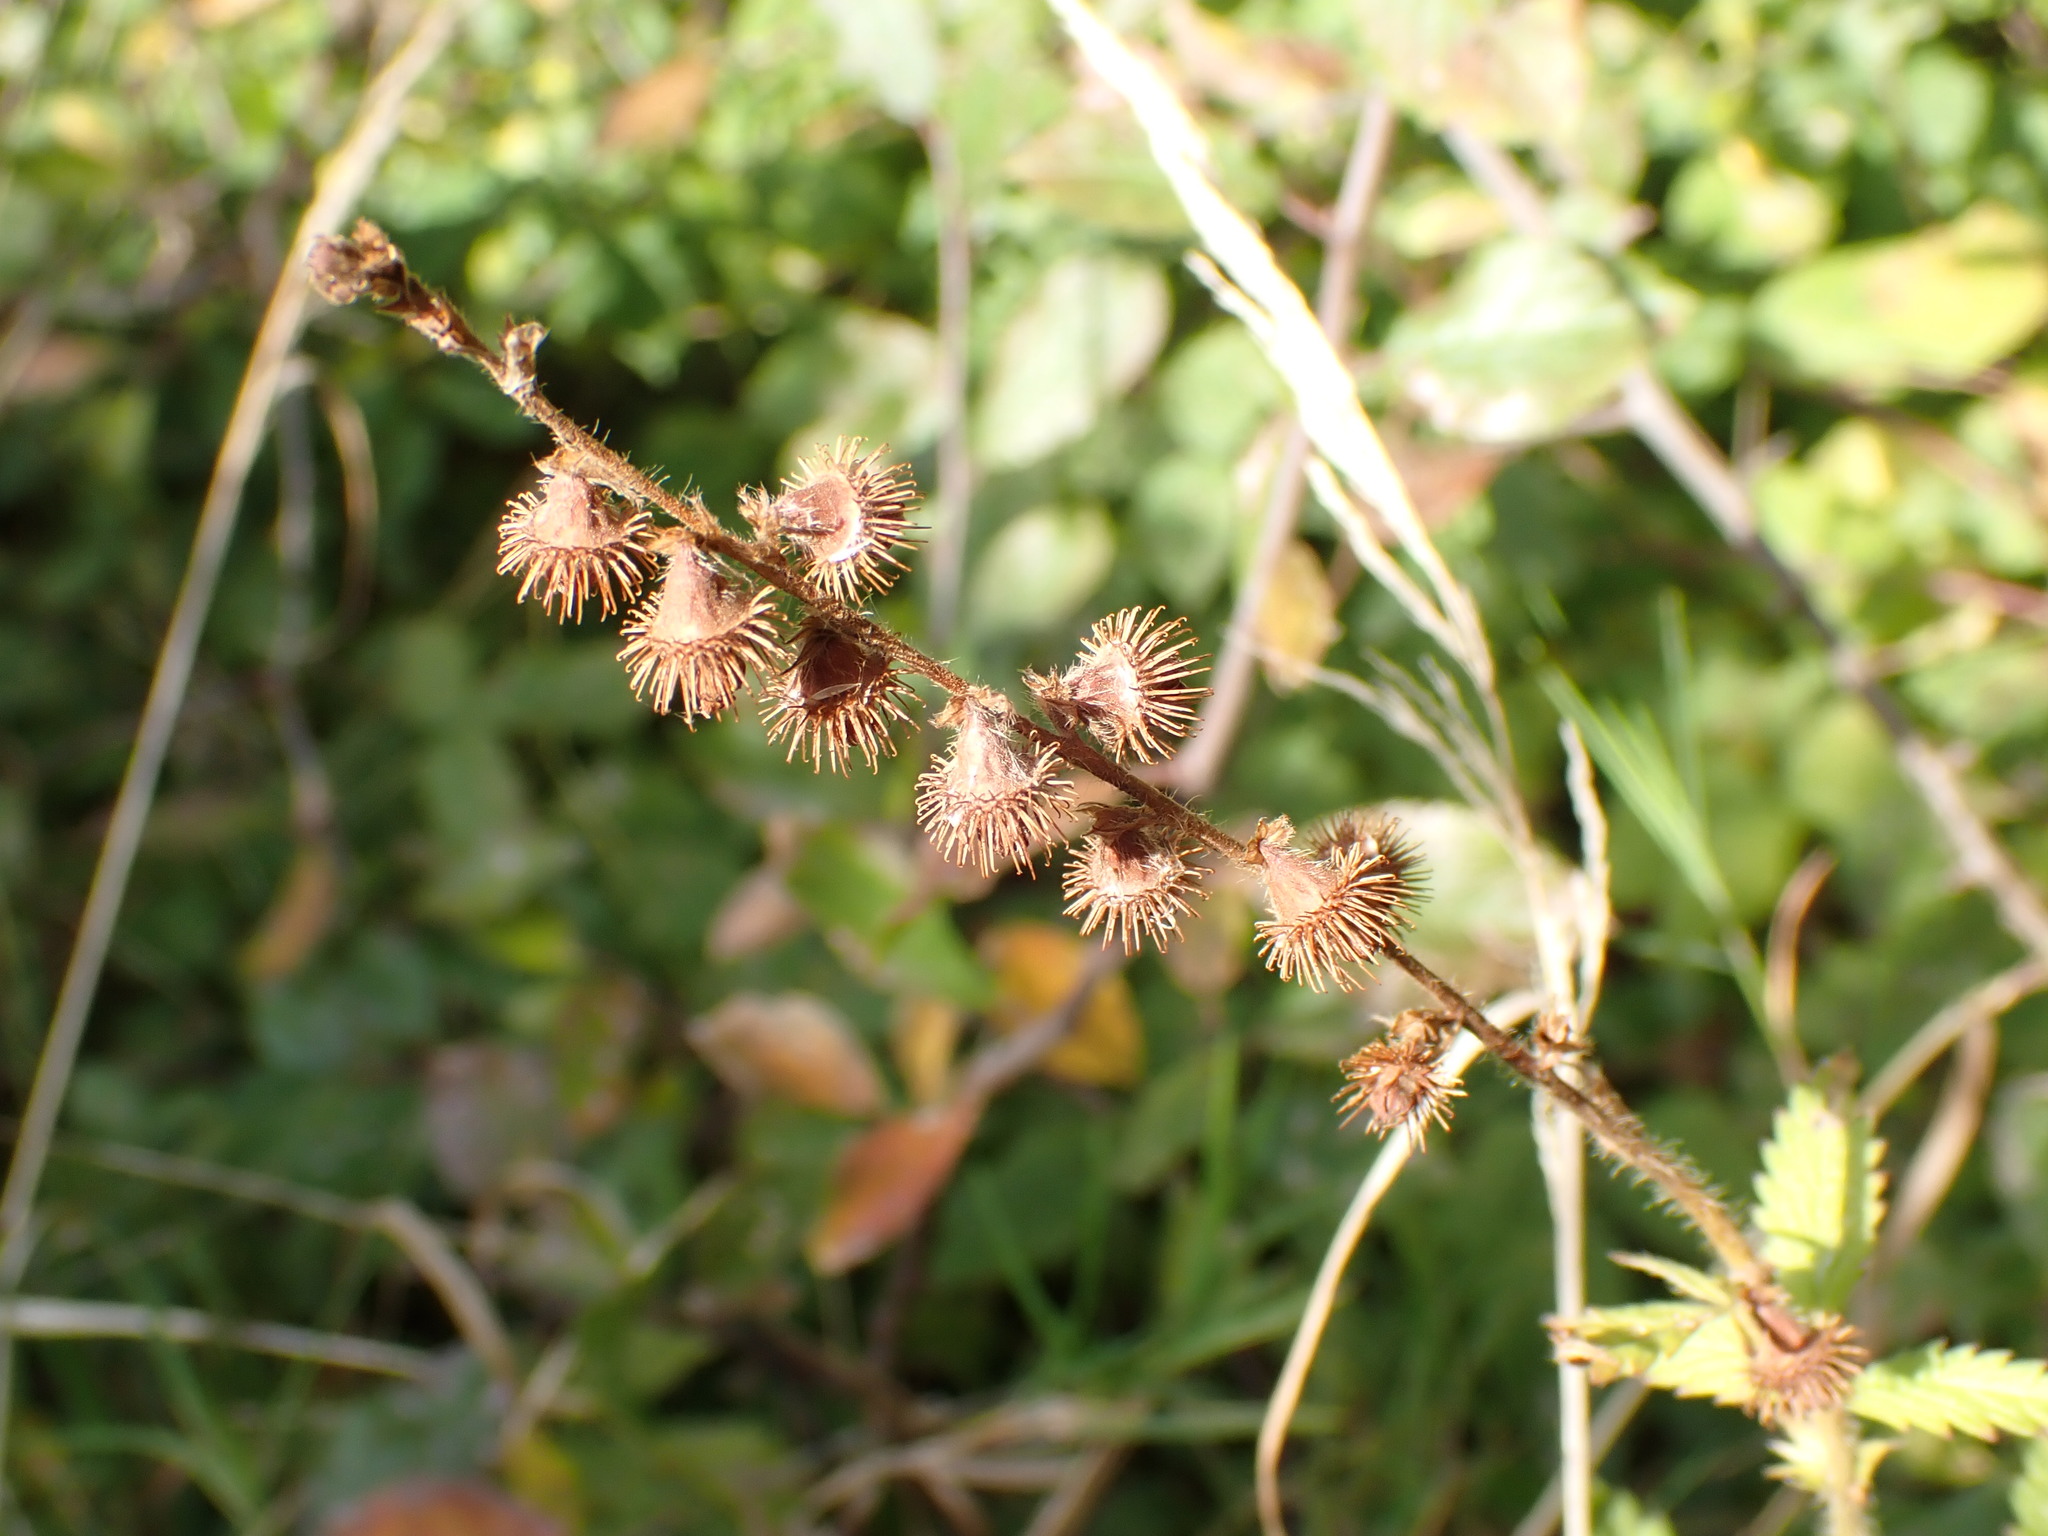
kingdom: Plantae
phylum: Tracheophyta
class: Magnoliopsida
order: Rosales
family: Rosaceae
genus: Agrimonia
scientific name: Agrimonia eupatoria
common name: Agrimony
